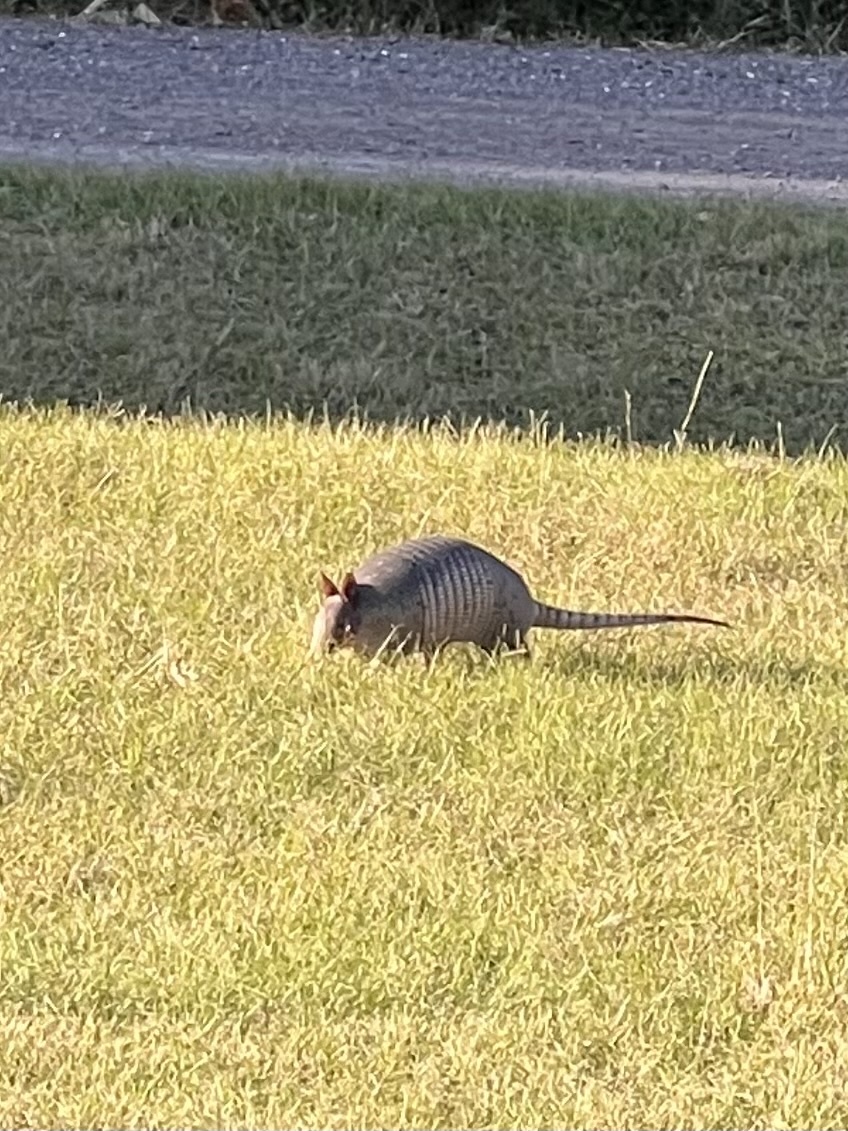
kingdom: Animalia
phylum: Chordata
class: Mammalia
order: Cingulata
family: Dasypodidae
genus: Dasypus
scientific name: Dasypus novemcinctus
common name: Nine-banded armadillo
